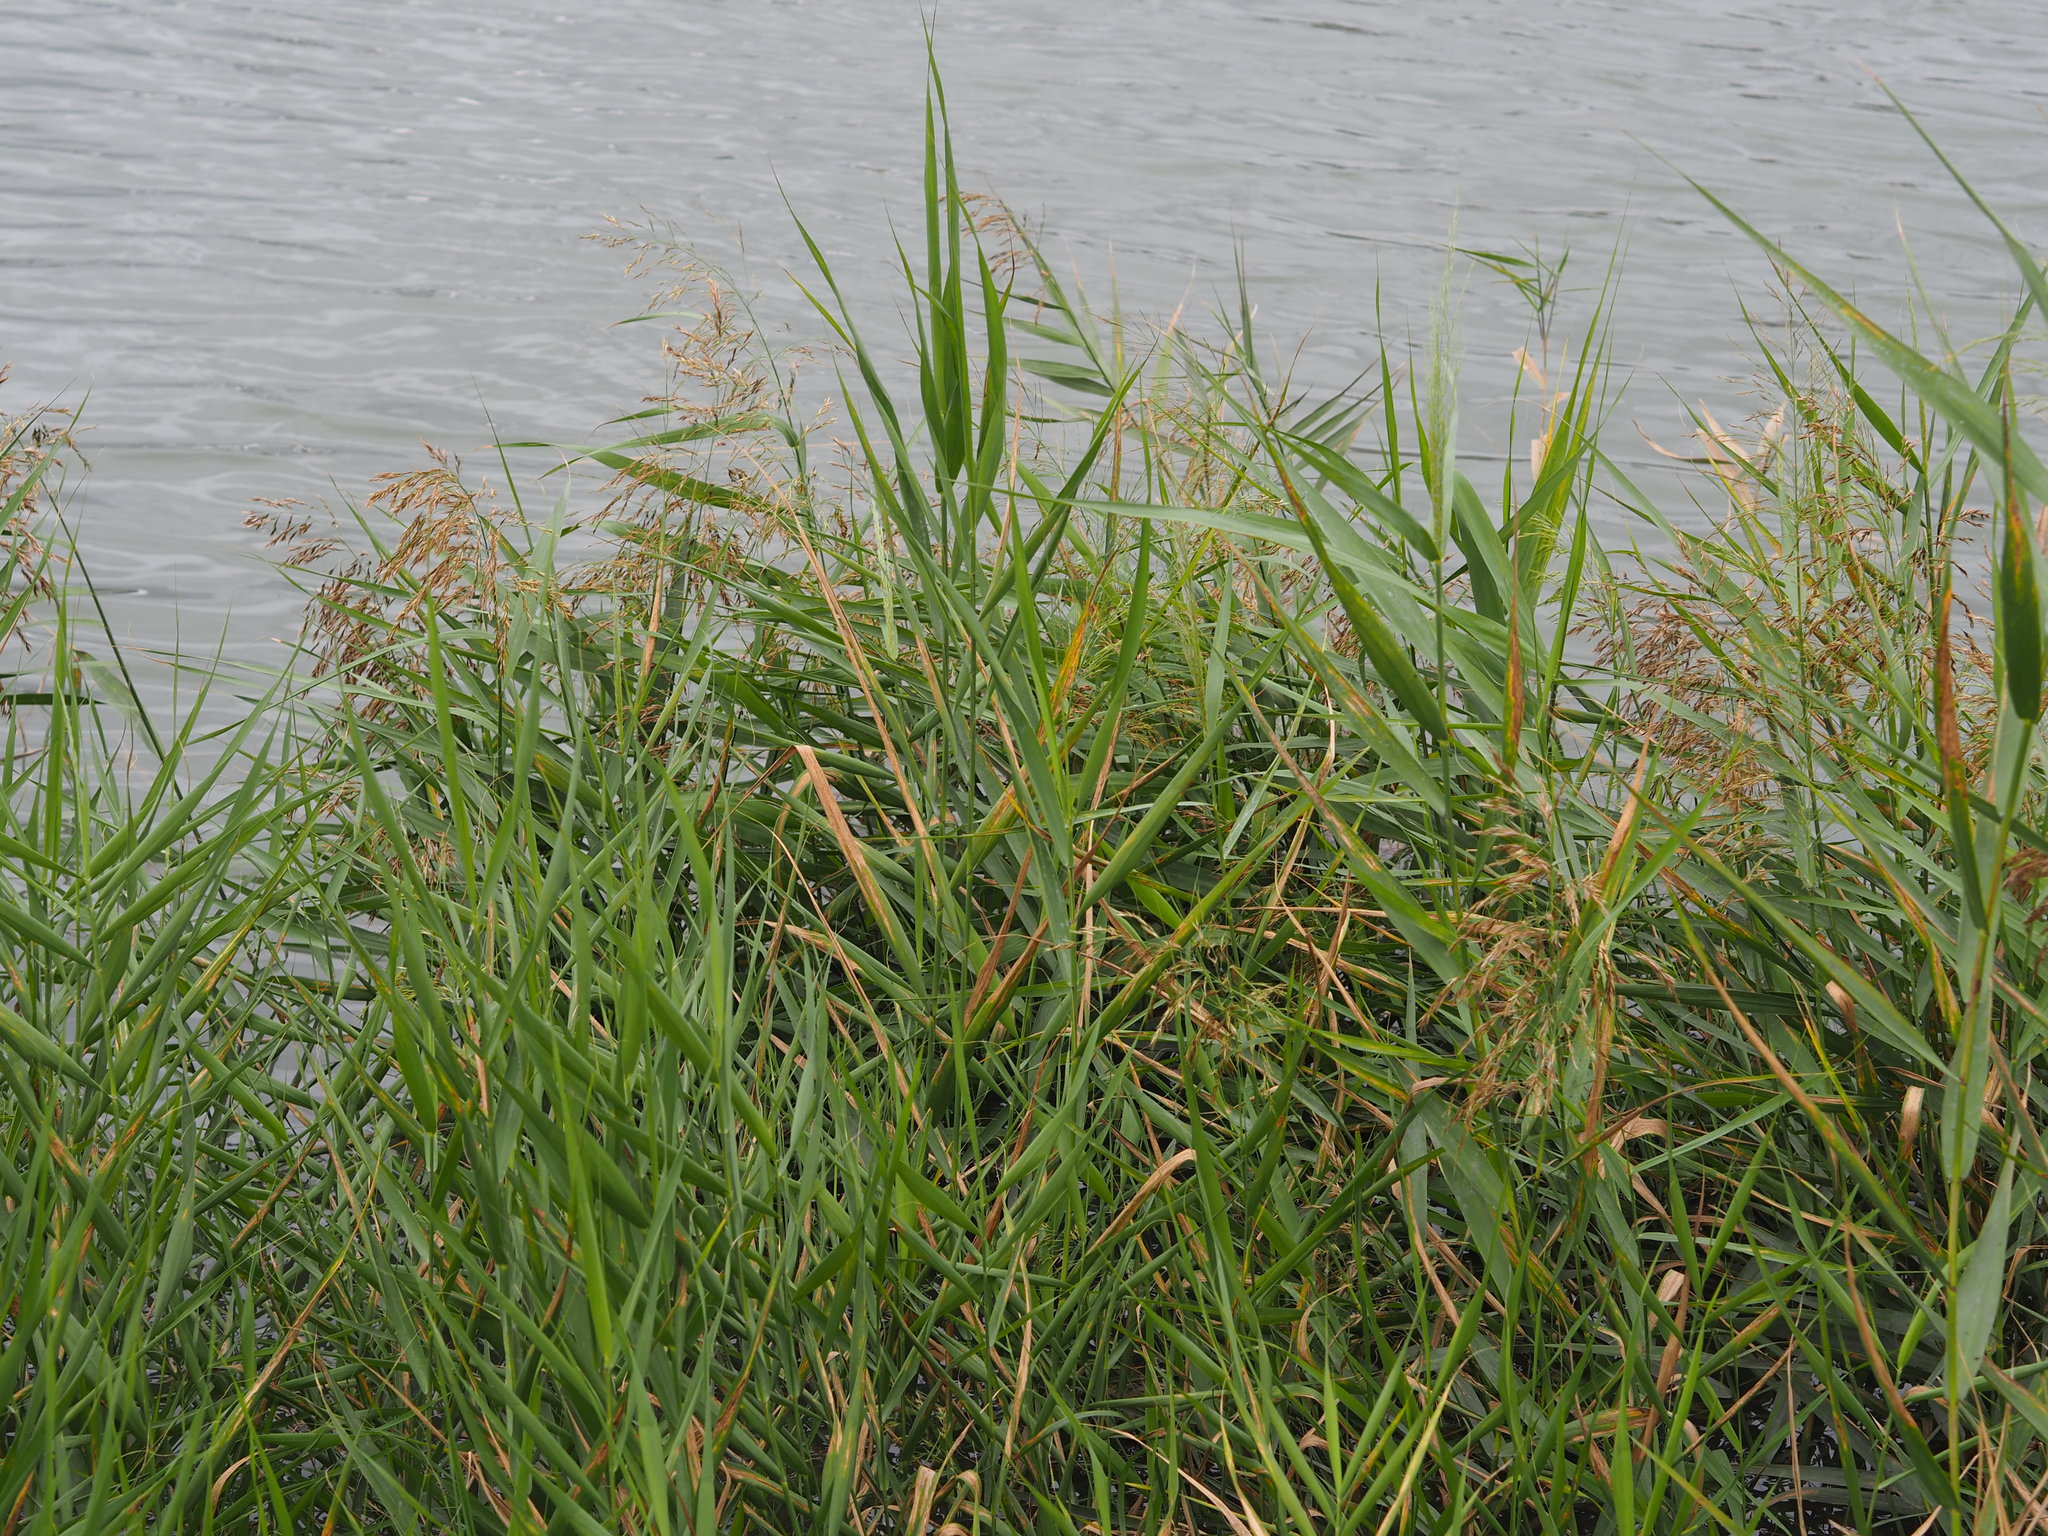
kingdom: Plantae
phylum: Tracheophyta
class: Liliopsida
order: Poales
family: Poaceae
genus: Phragmites
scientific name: Phragmites australis
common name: Common reed
